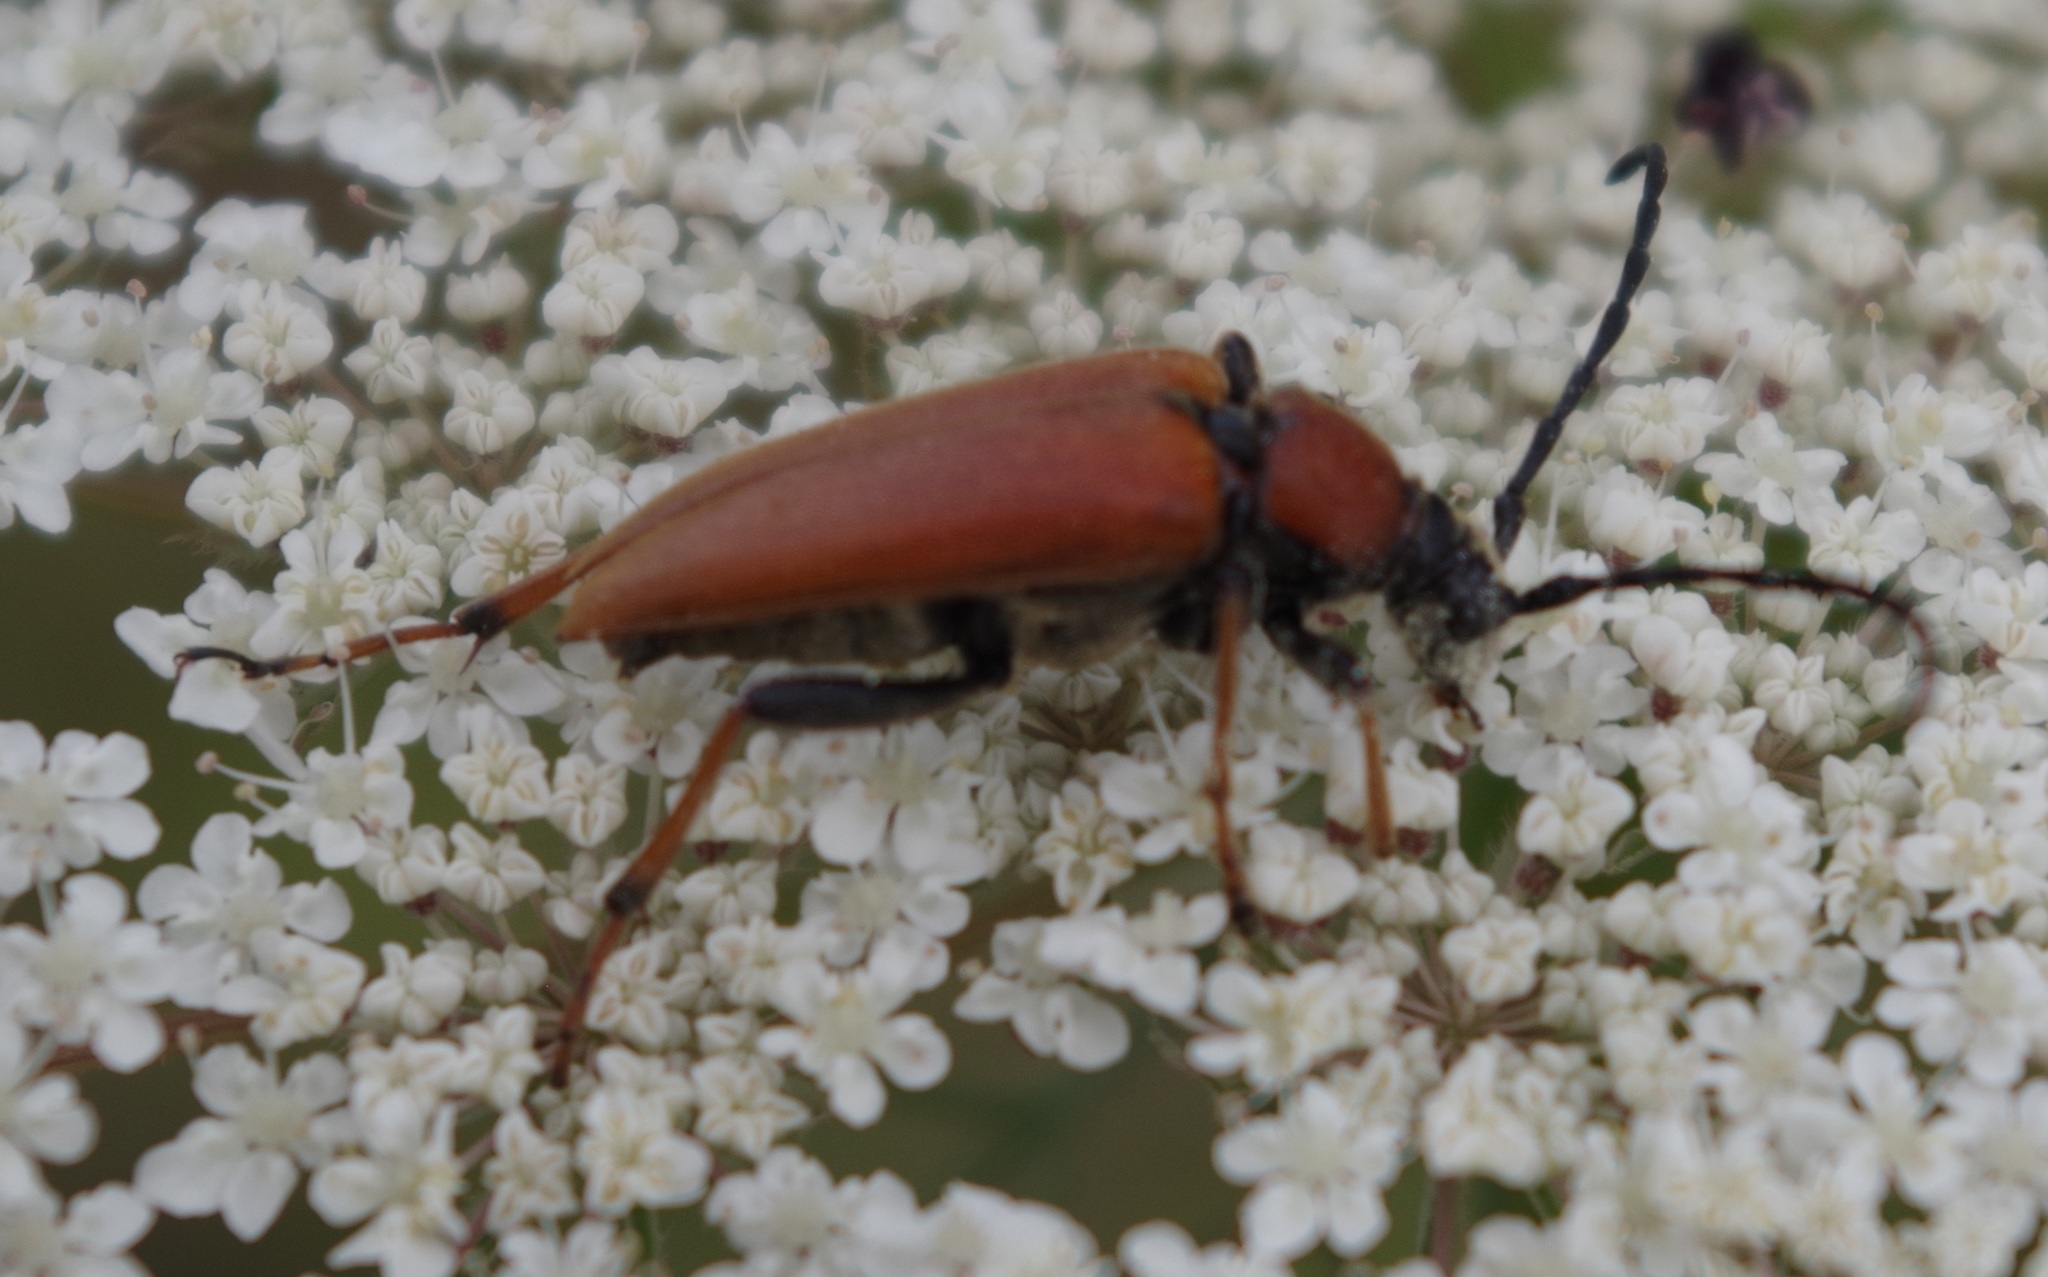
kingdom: Animalia
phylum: Arthropoda
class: Insecta
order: Coleoptera
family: Cerambycidae
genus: Stictoleptura
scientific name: Stictoleptura rubra
